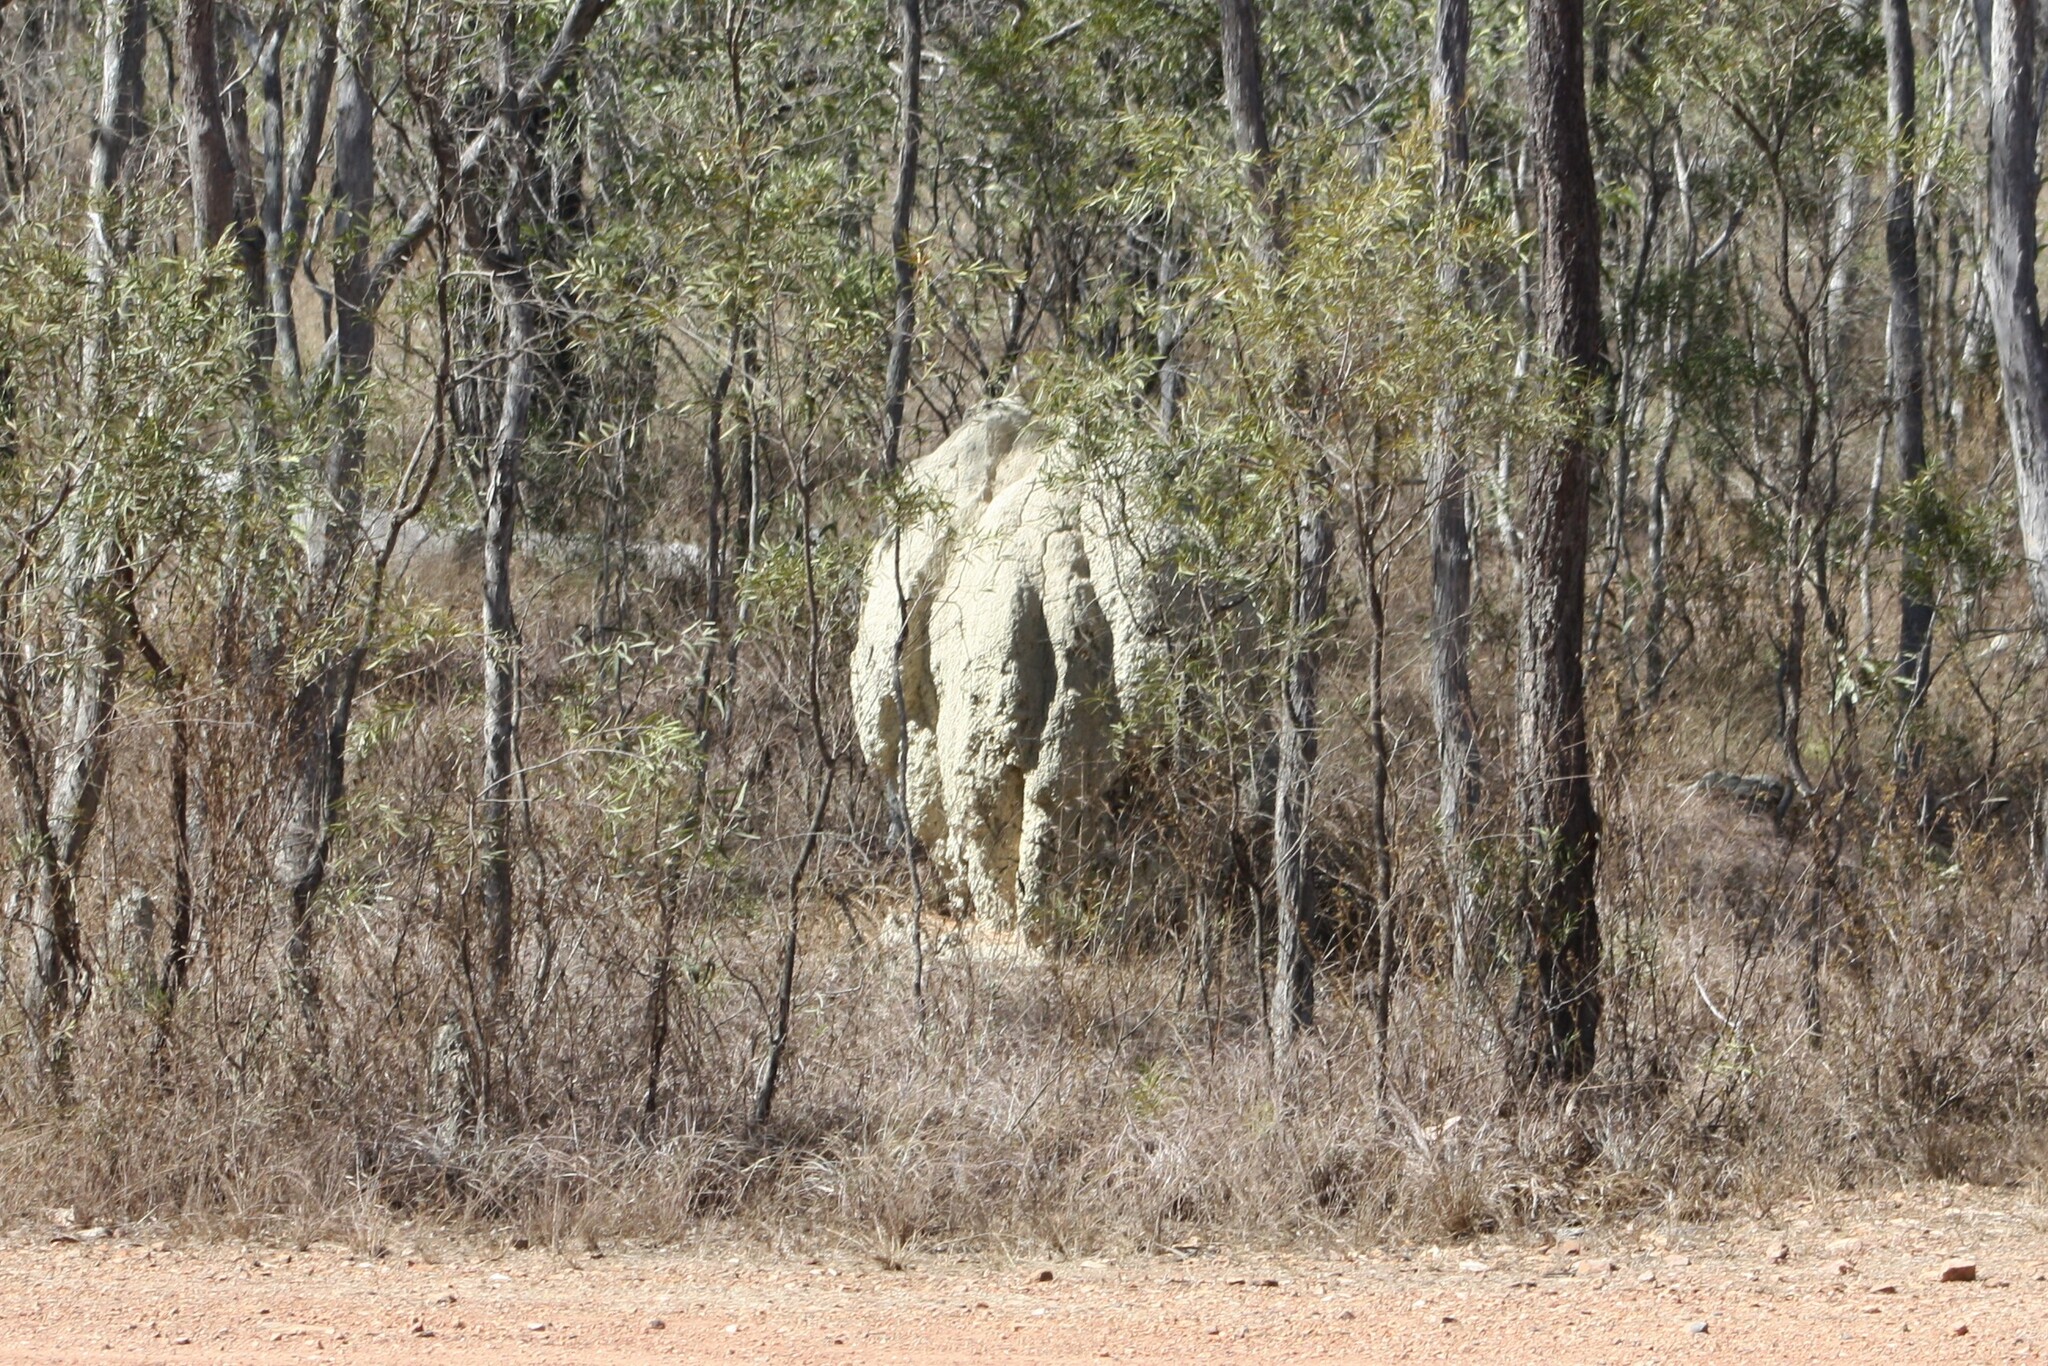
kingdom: Animalia
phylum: Arthropoda
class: Insecta
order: Blattodea
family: Termitidae
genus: Nasutitermes
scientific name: Nasutitermes triodiae
